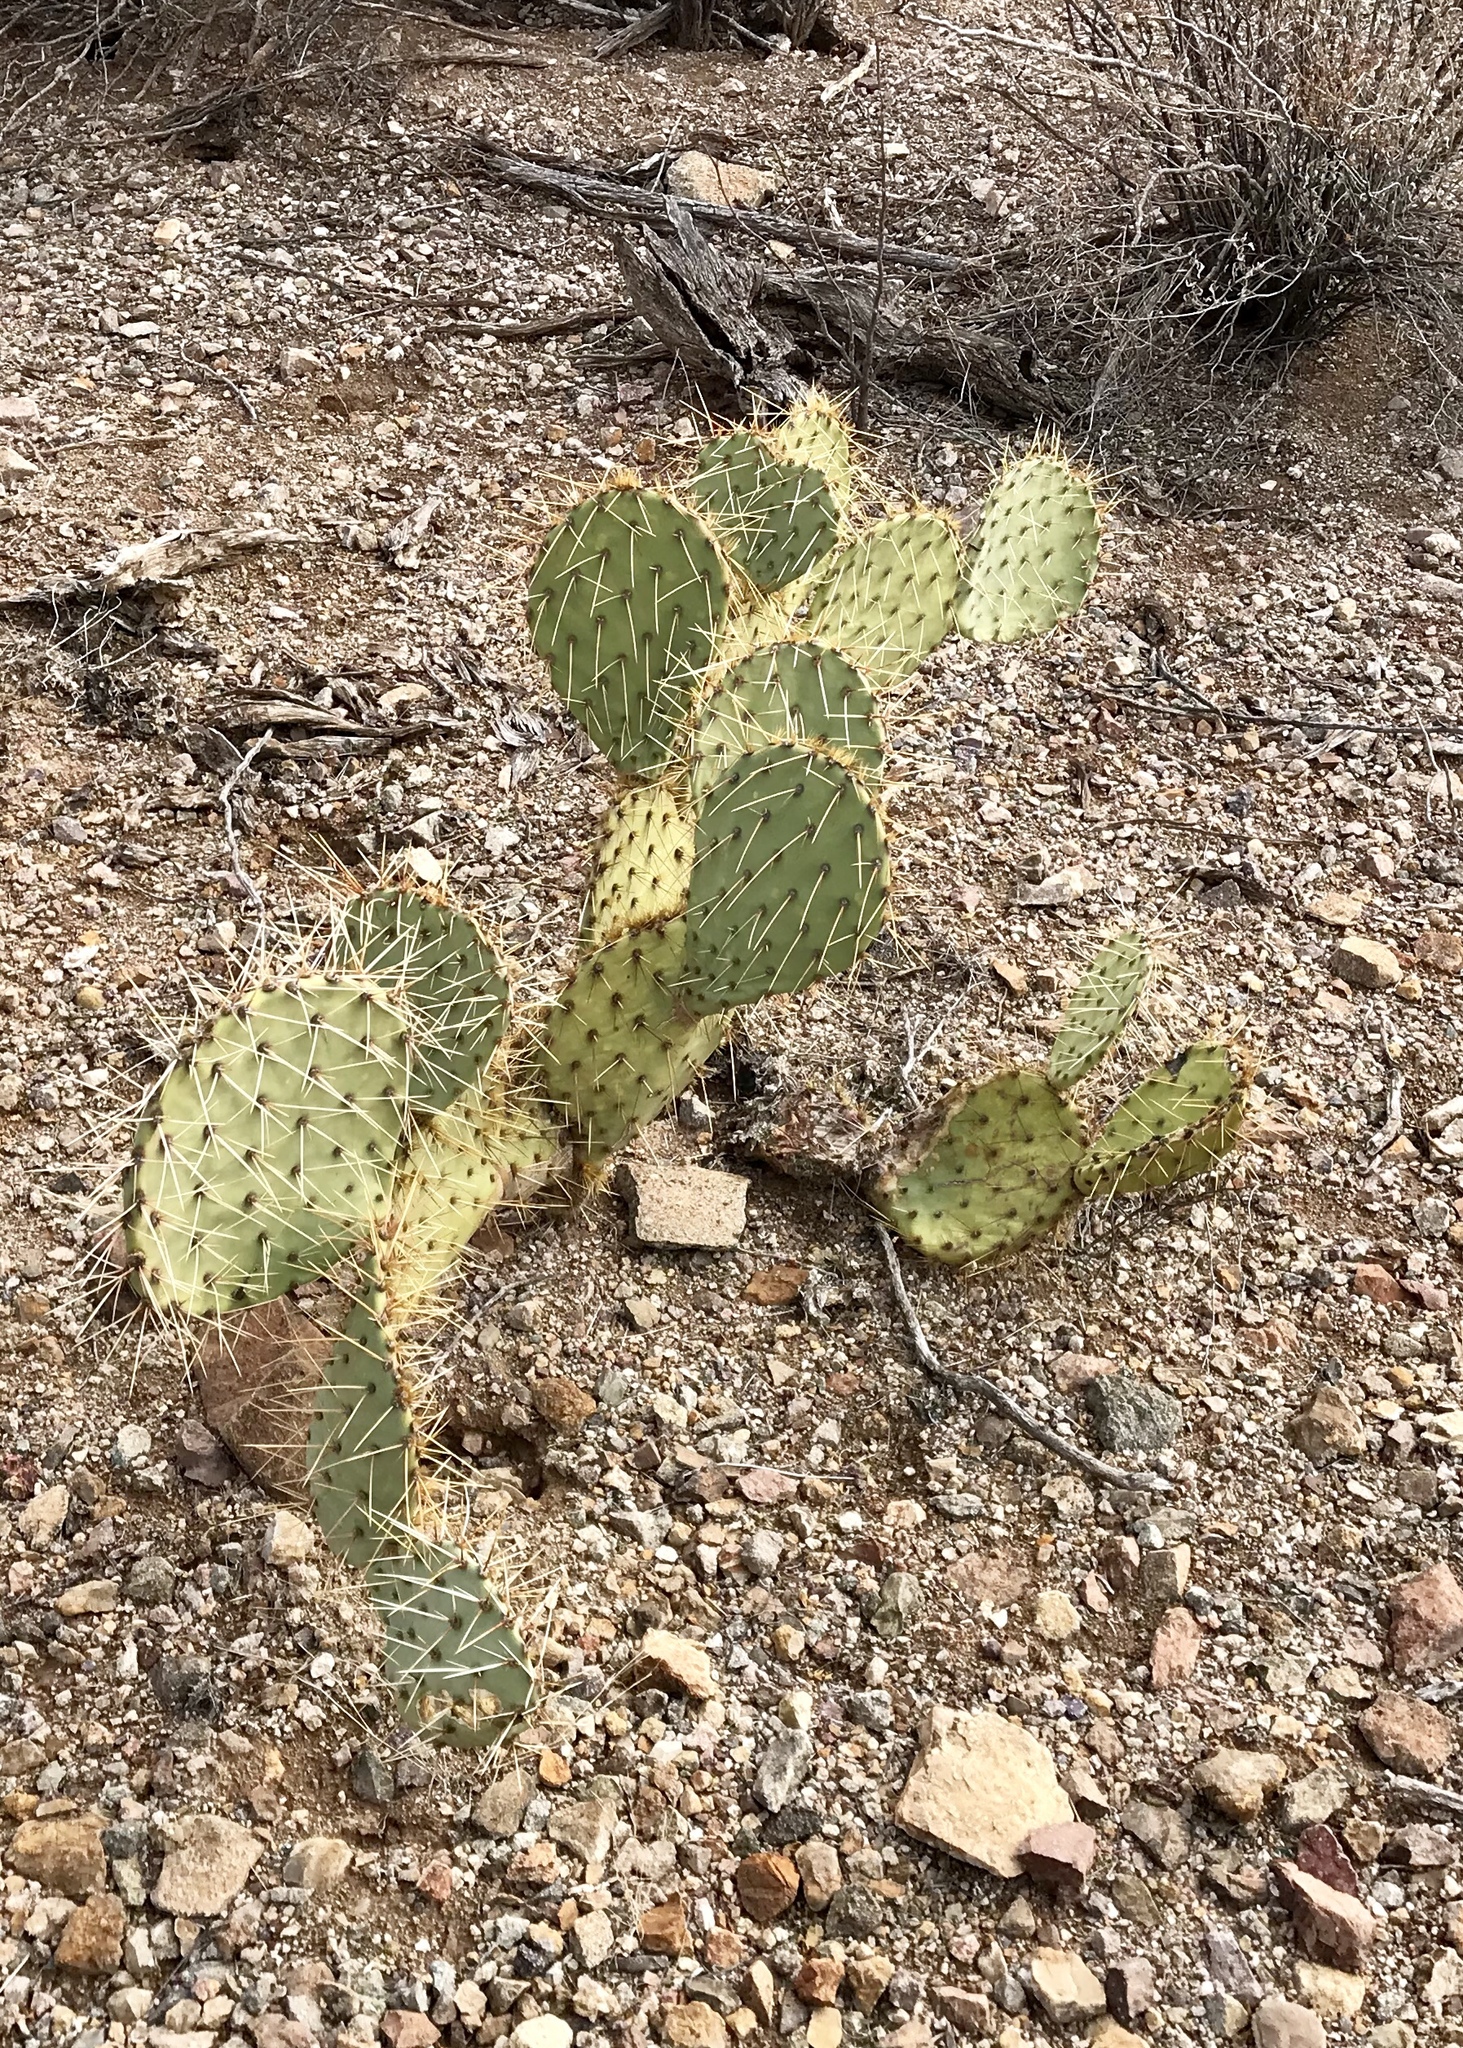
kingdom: Plantae
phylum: Tracheophyta
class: Magnoliopsida
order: Caryophyllales
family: Cactaceae
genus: Opuntia
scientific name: Opuntia engelmannii
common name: Cactus-apple
